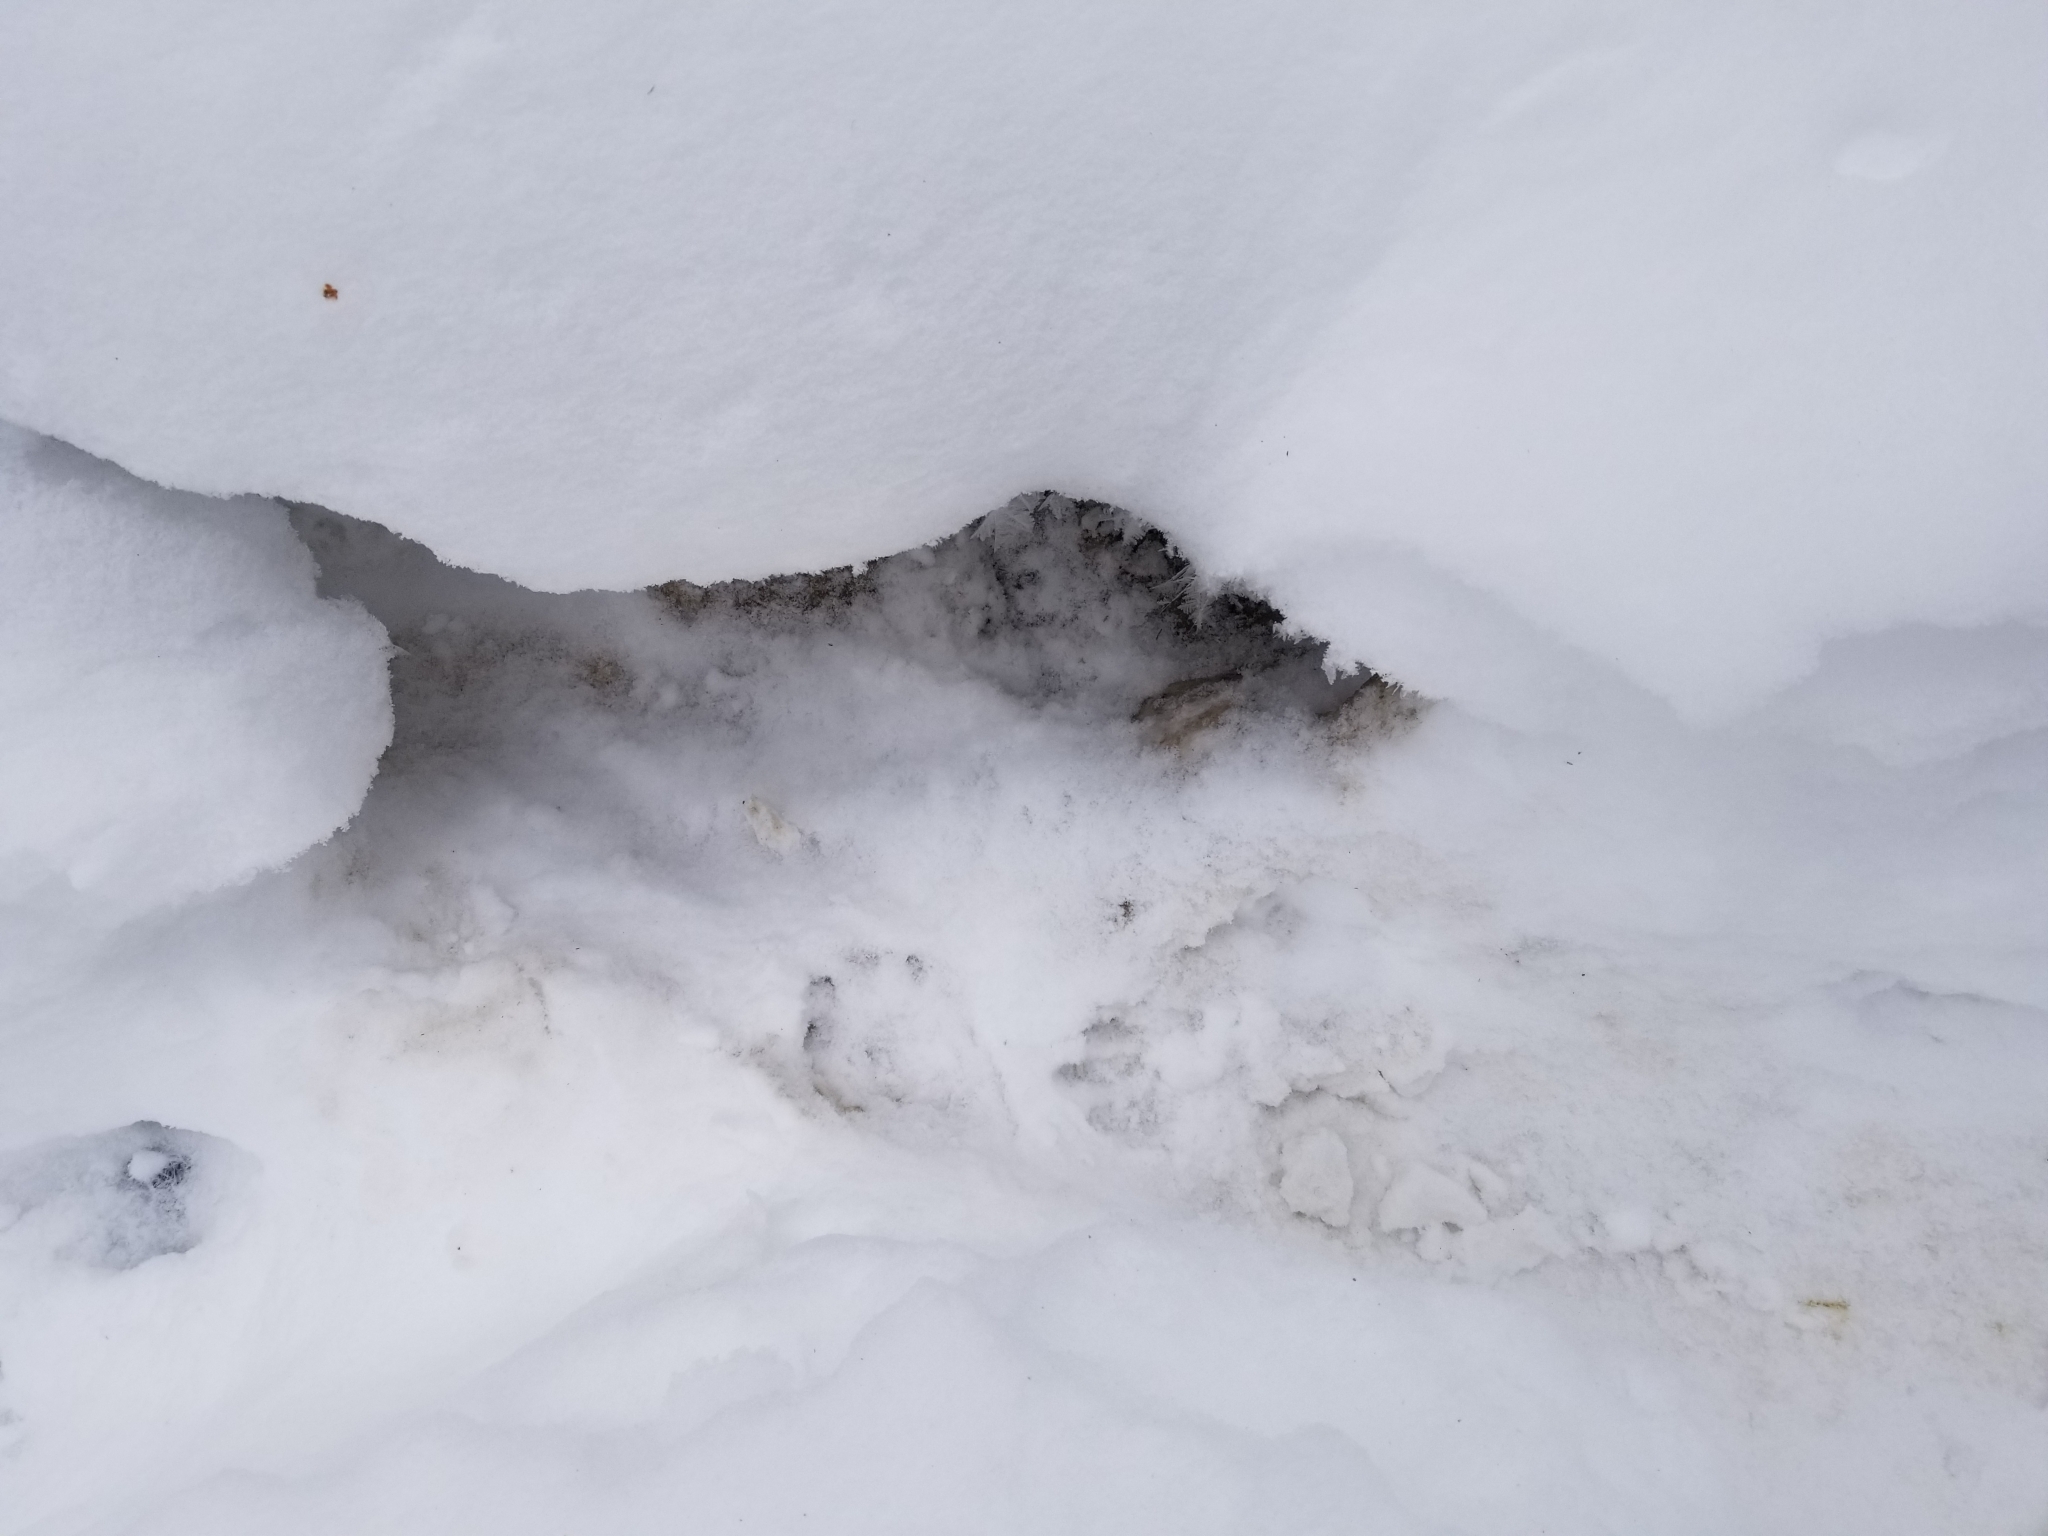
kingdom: Animalia
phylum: Chordata
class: Mammalia
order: Carnivora
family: Mustelidae
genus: Lontra
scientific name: Lontra canadensis
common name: North american river otter
